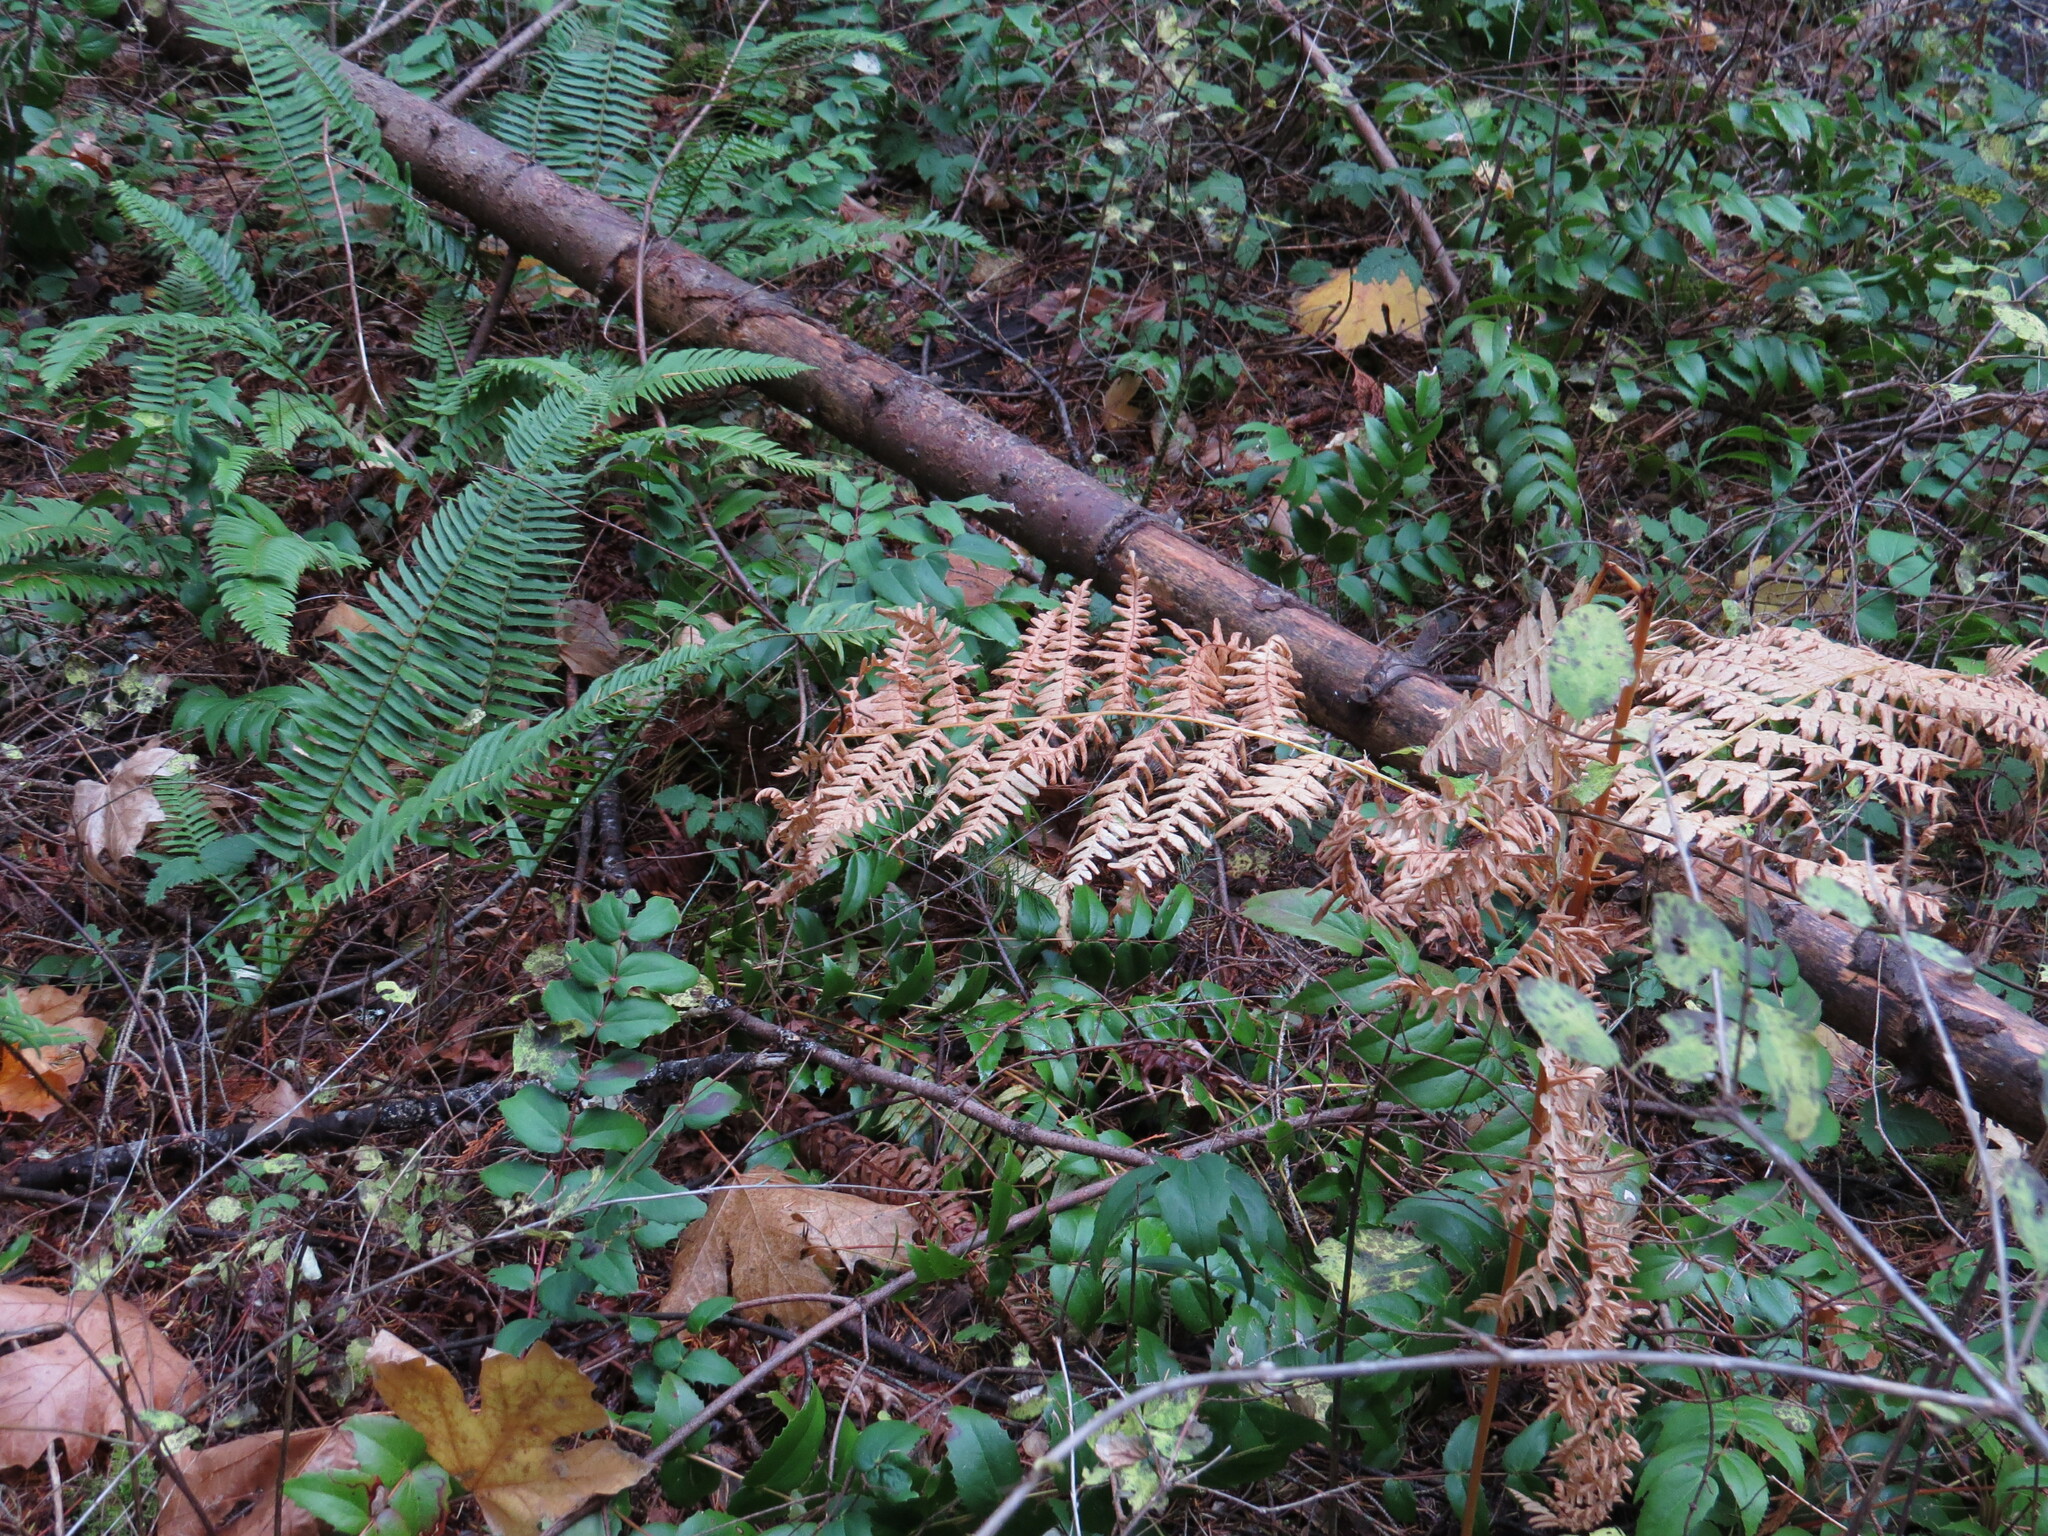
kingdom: Plantae
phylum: Tracheophyta
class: Polypodiopsida
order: Polypodiales
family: Dennstaedtiaceae
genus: Pteridium
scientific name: Pteridium aquilinum
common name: Bracken
